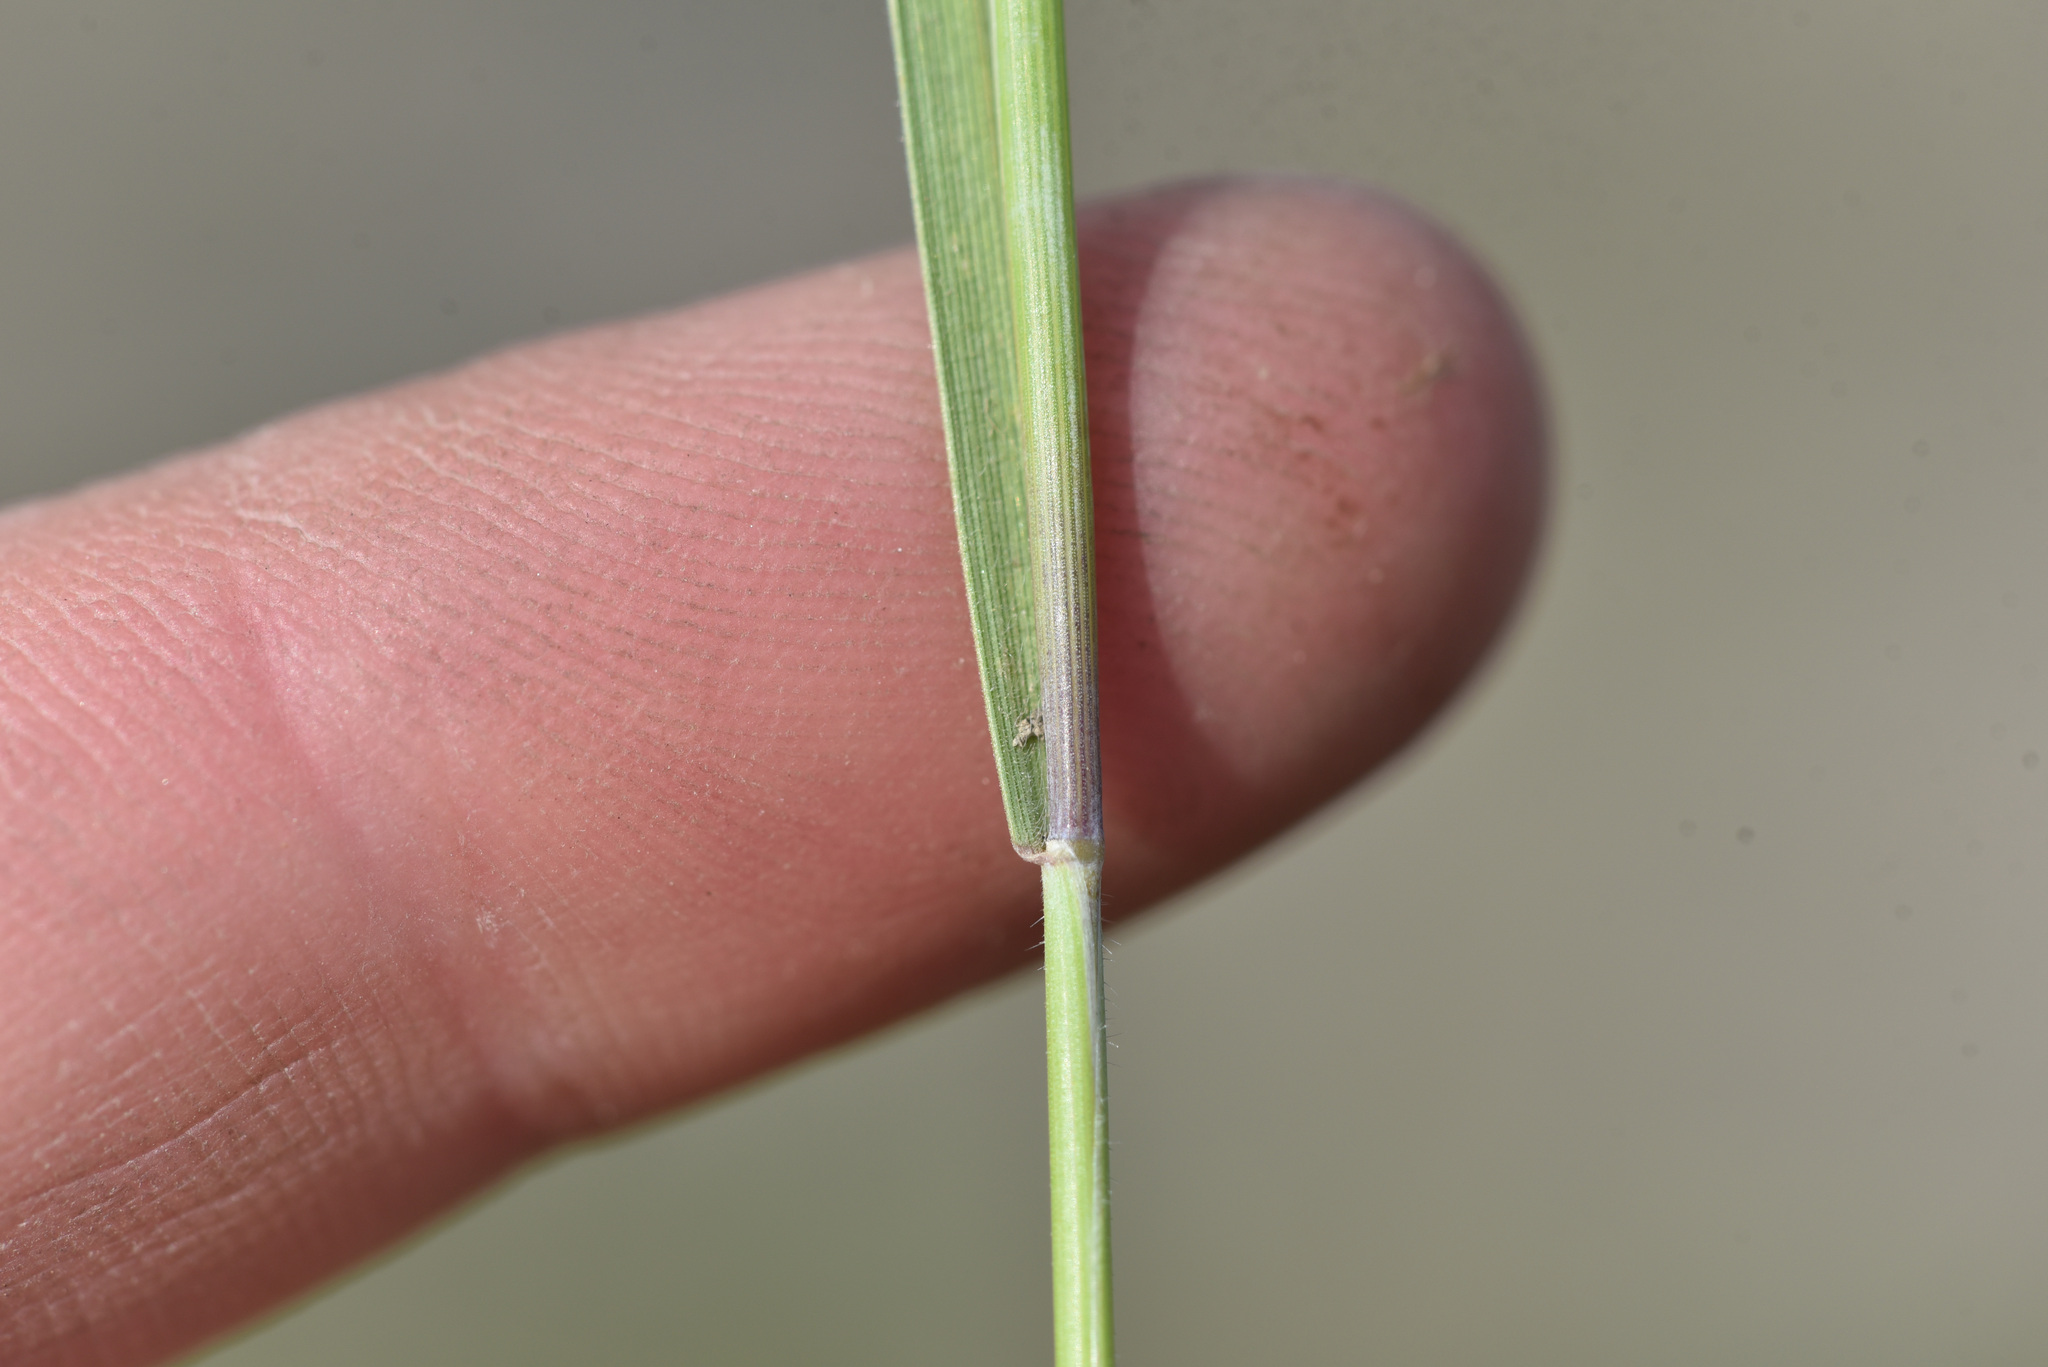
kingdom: Plantae
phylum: Tracheophyta
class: Liliopsida
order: Poales
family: Poaceae
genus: Hordeum
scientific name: Hordeum jubatum
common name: Foxtail barley
